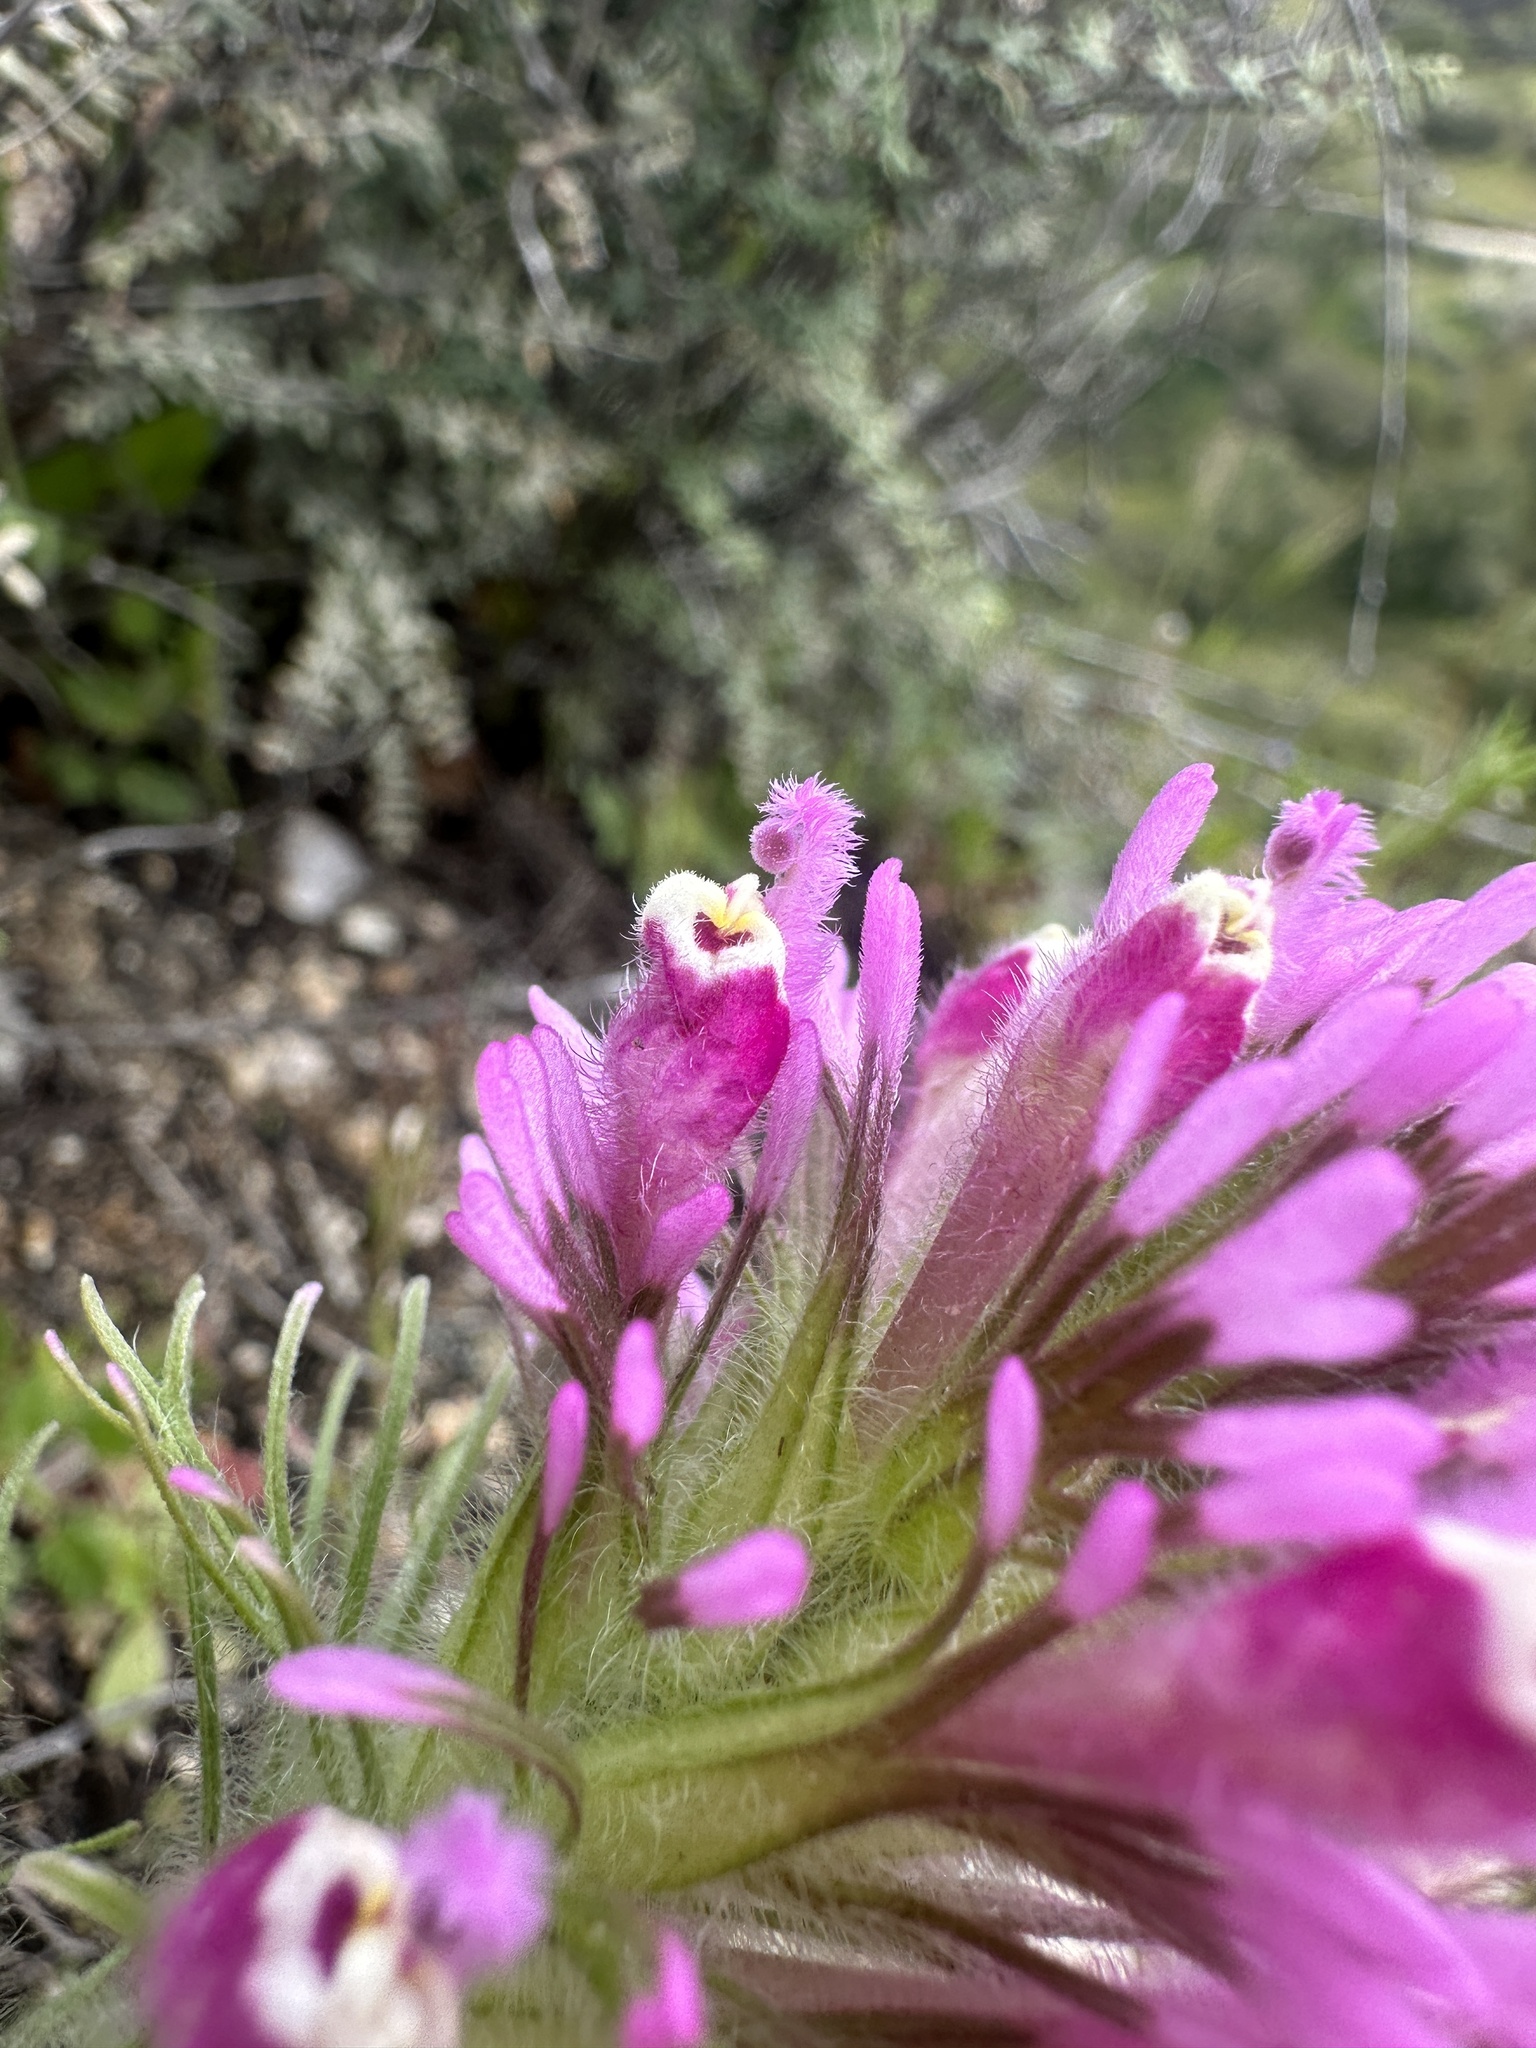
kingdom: Plantae
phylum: Tracheophyta
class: Magnoliopsida
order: Lamiales
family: Orobanchaceae
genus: Castilleja
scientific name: Castilleja exserta
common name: Purple owl-clover
